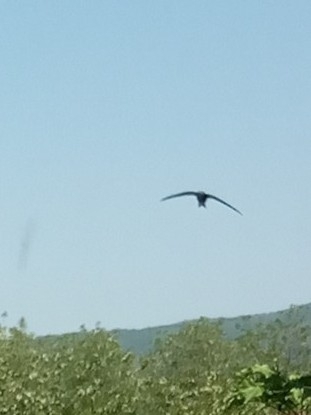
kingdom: Animalia
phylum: Chordata
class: Aves
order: Apodiformes
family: Apodidae
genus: Apus
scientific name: Apus apus
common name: Common swift
